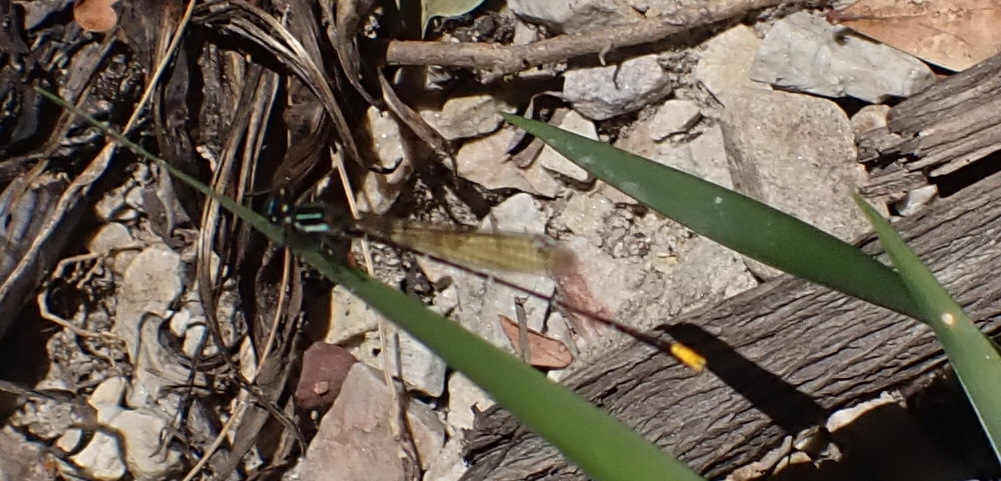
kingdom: Animalia
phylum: Arthropoda
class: Insecta
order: Odonata
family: Platycnemididae
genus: Allocnemis
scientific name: Allocnemis leucosticta
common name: Goldtail
